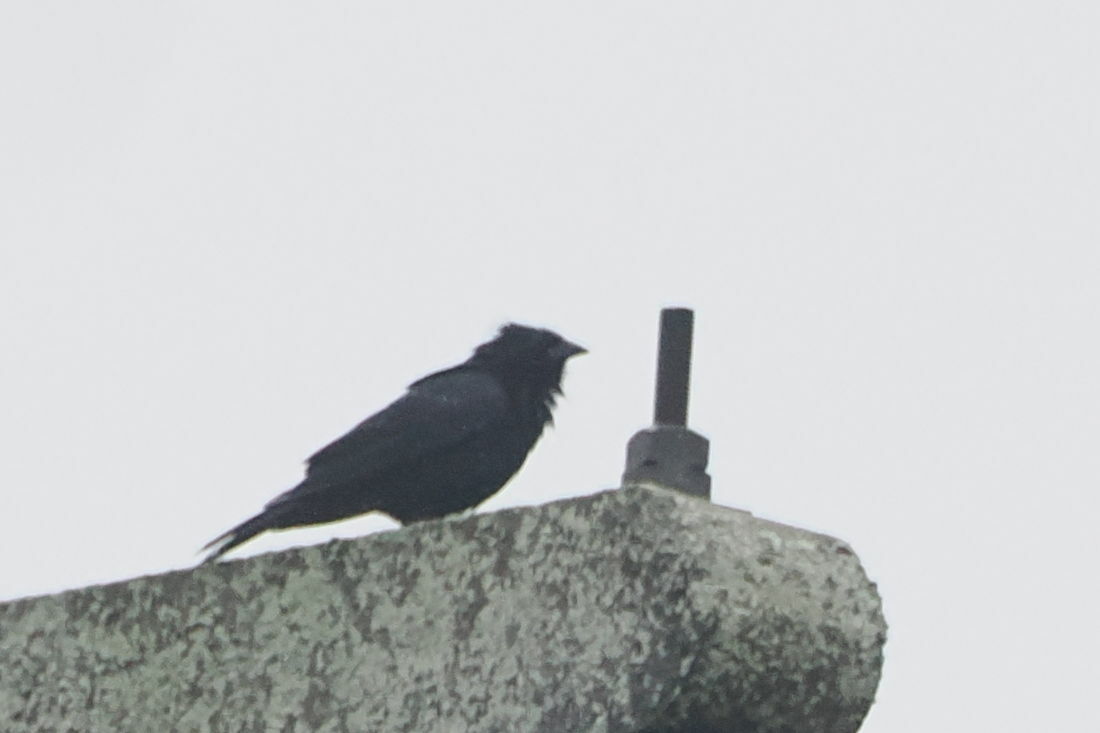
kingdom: Animalia
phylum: Chordata
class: Aves
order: Passeriformes
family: Icteridae
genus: Gnorimopsar
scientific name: Gnorimopsar chopi
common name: Chopi blackbird
